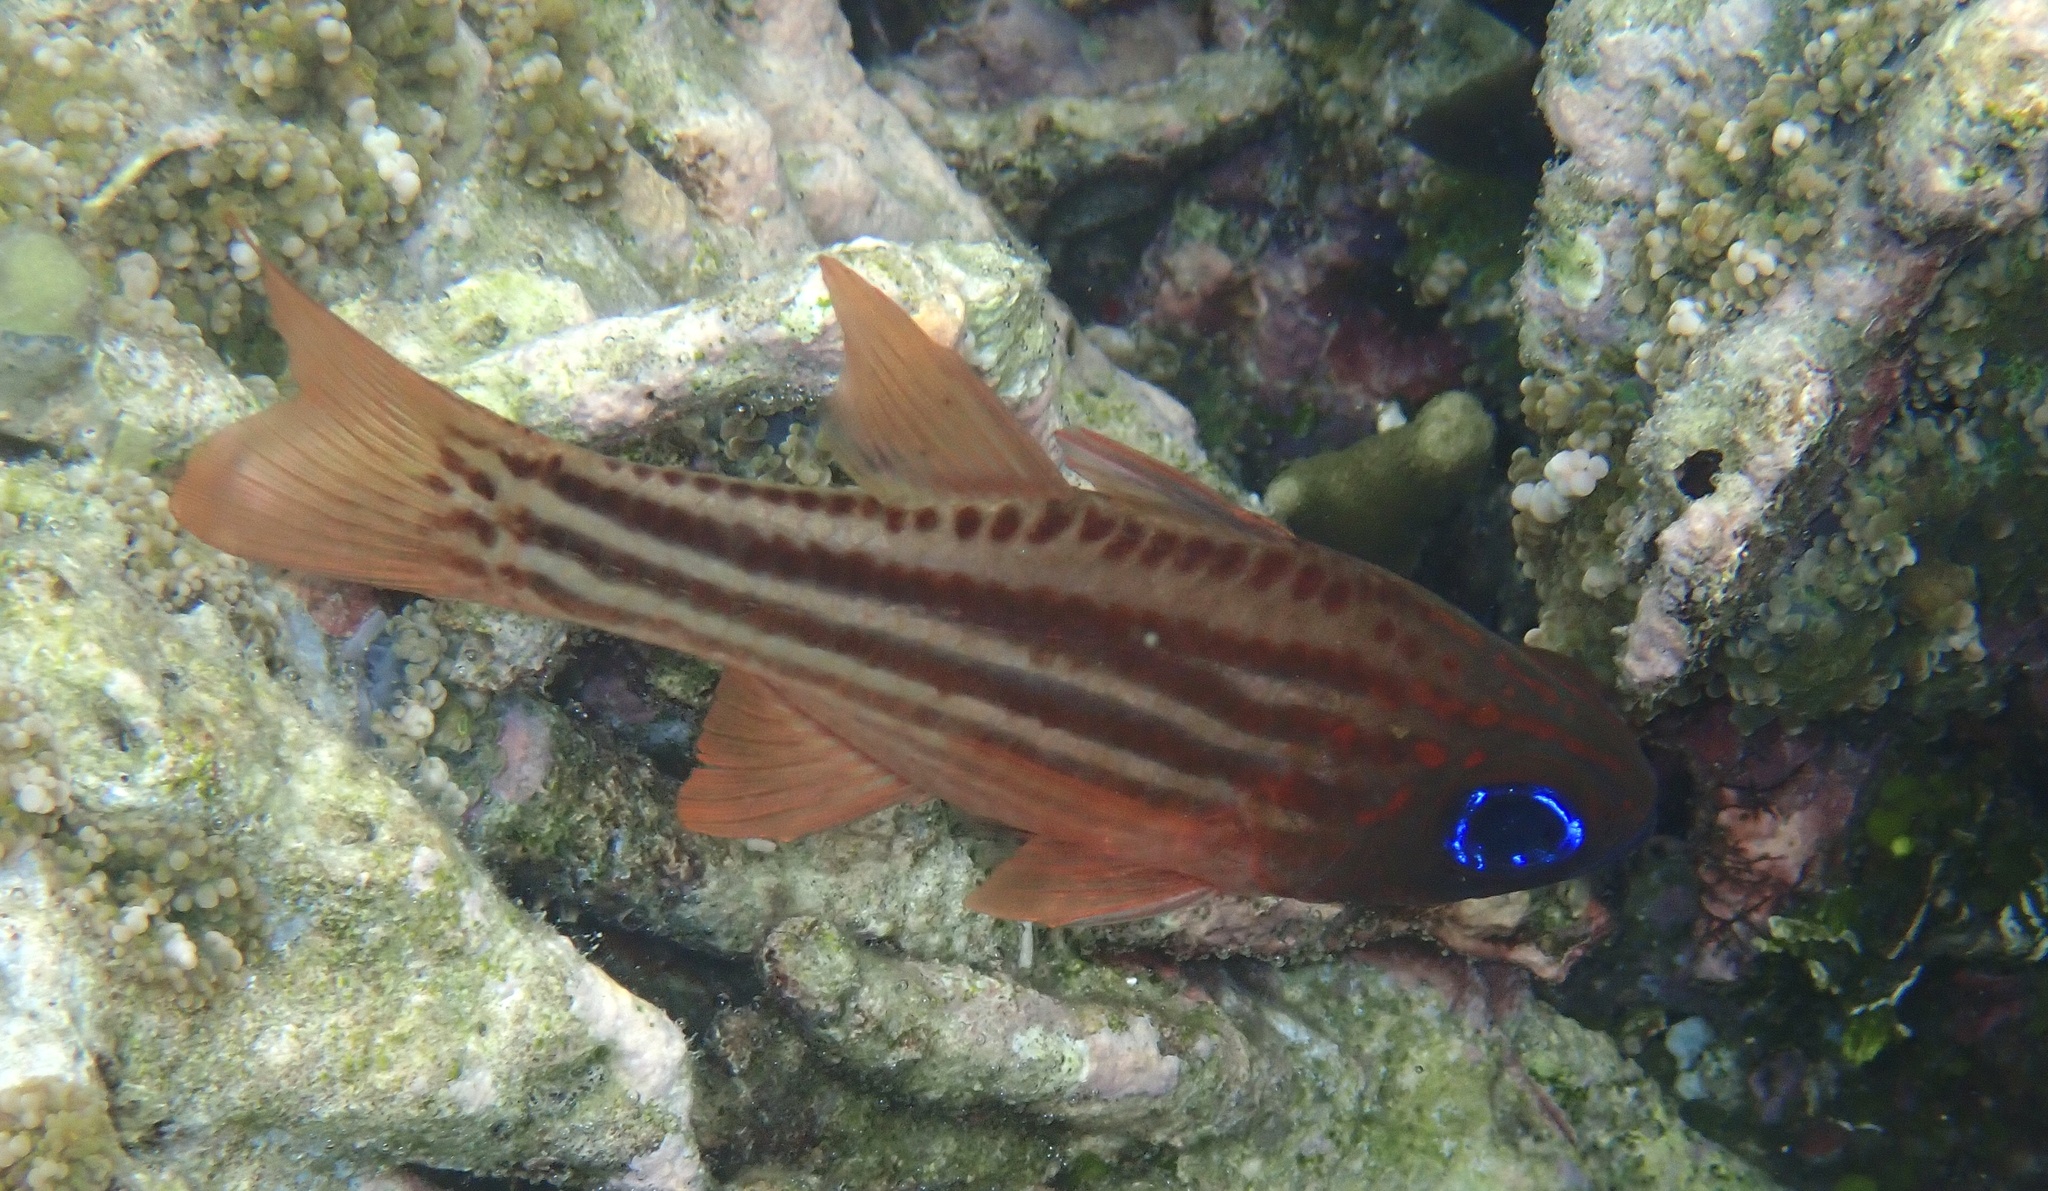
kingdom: Animalia
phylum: Chordata
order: Perciformes
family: Apogonidae
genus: Ostorhinchus
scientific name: Ostorhinchus compressus
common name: Ochre-striped cardinalfish
